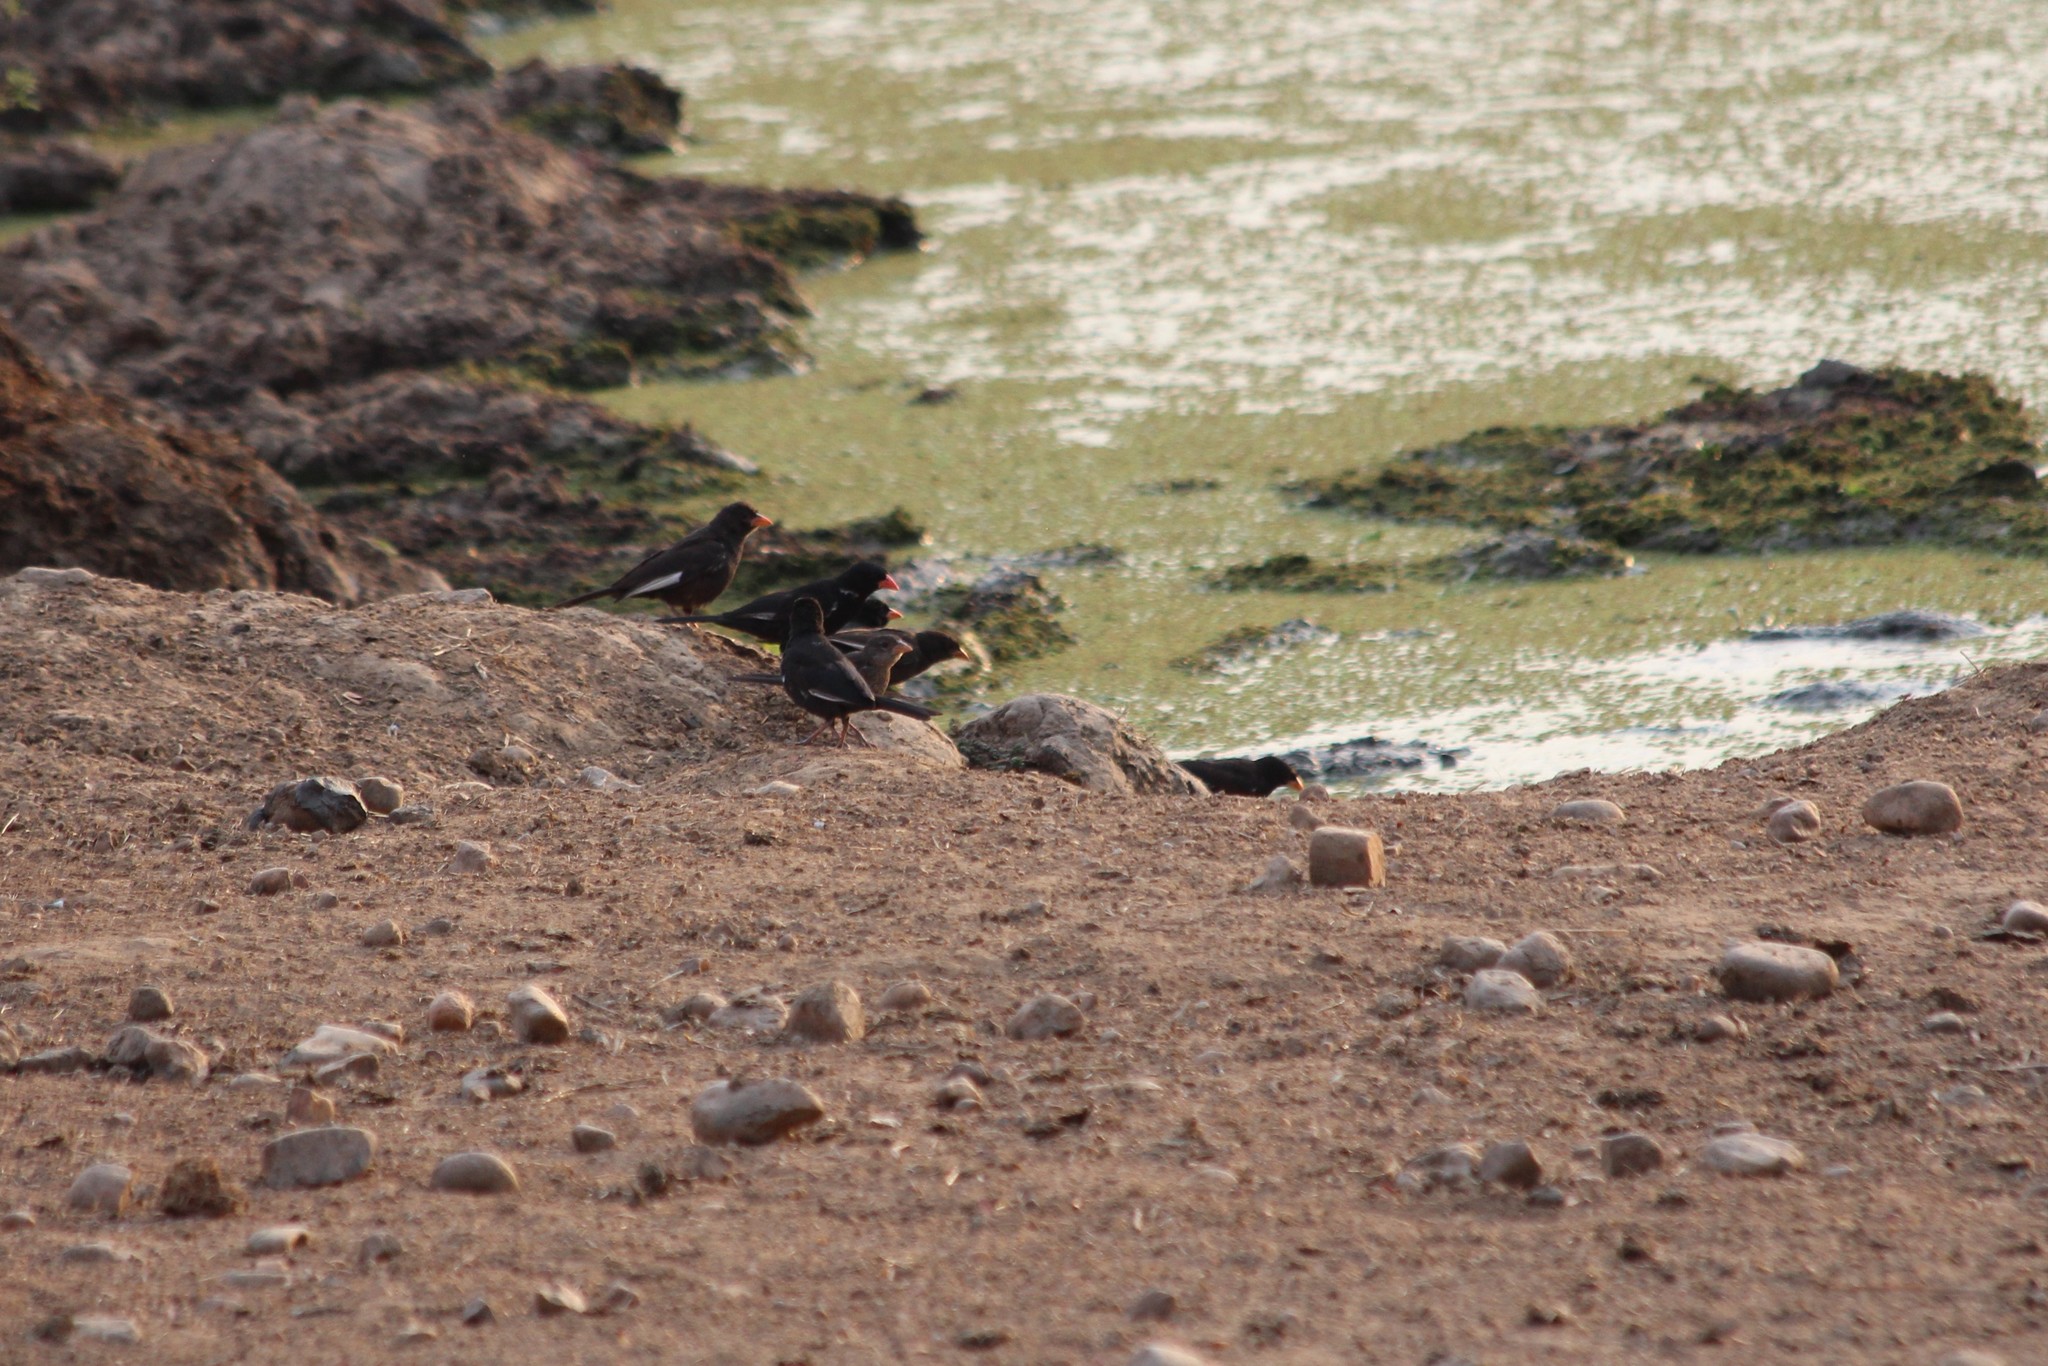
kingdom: Animalia
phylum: Chordata
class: Aves
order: Passeriformes
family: Ploceidae
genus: Bubalornis
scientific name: Bubalornis niger
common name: Red-billed buffalo weaver
